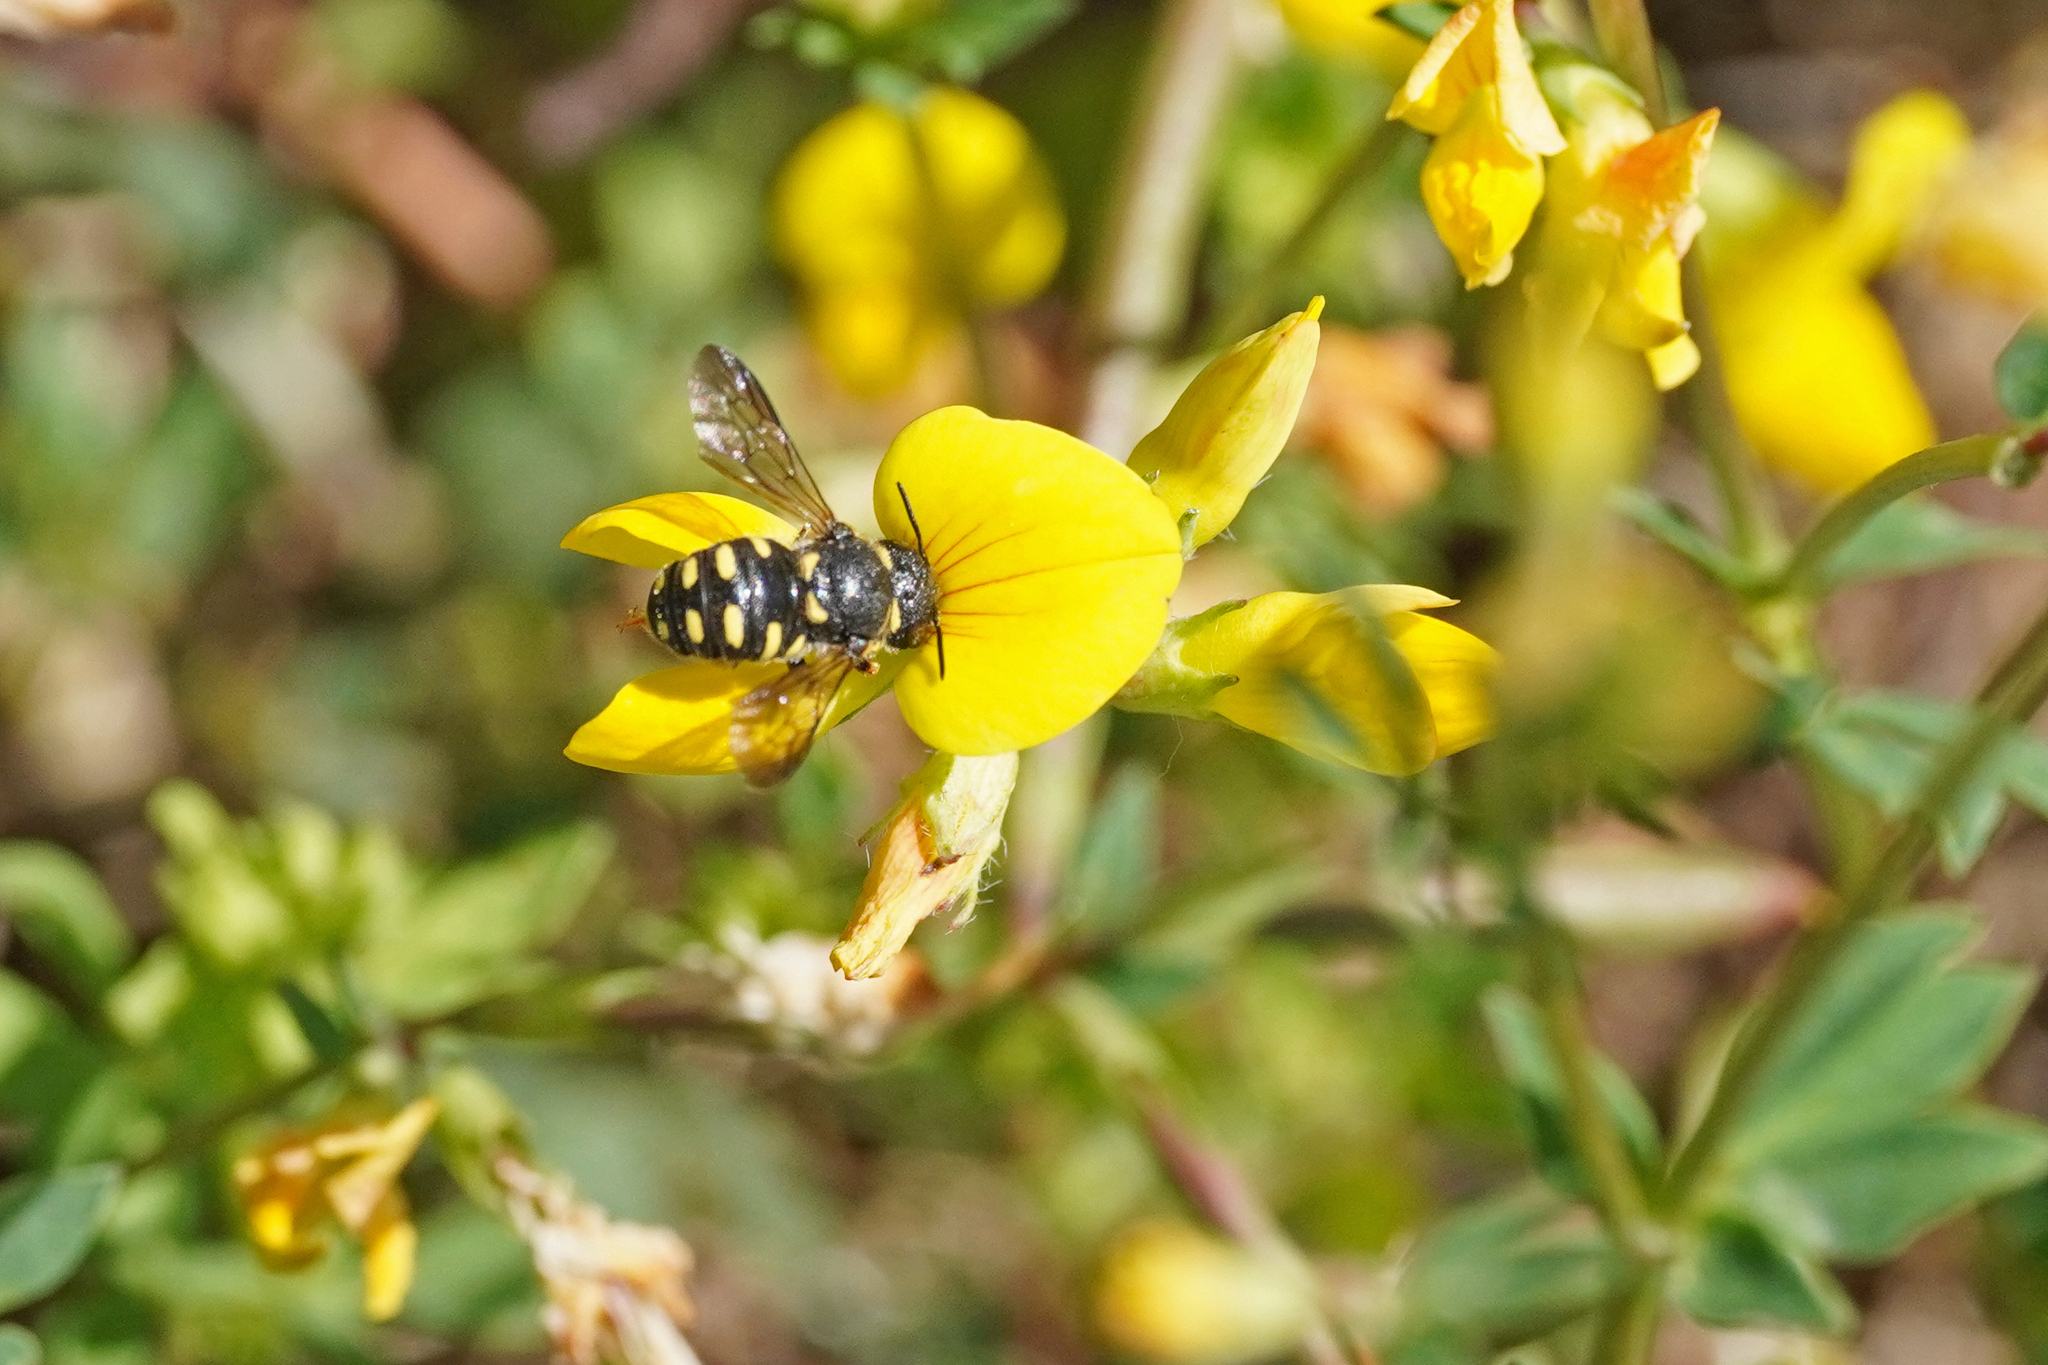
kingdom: Animalia
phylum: Arthropoda
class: Insecta
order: Hymenoptera
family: Megachilidae
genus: Anthidiellum
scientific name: Anthidiellum strigatum
